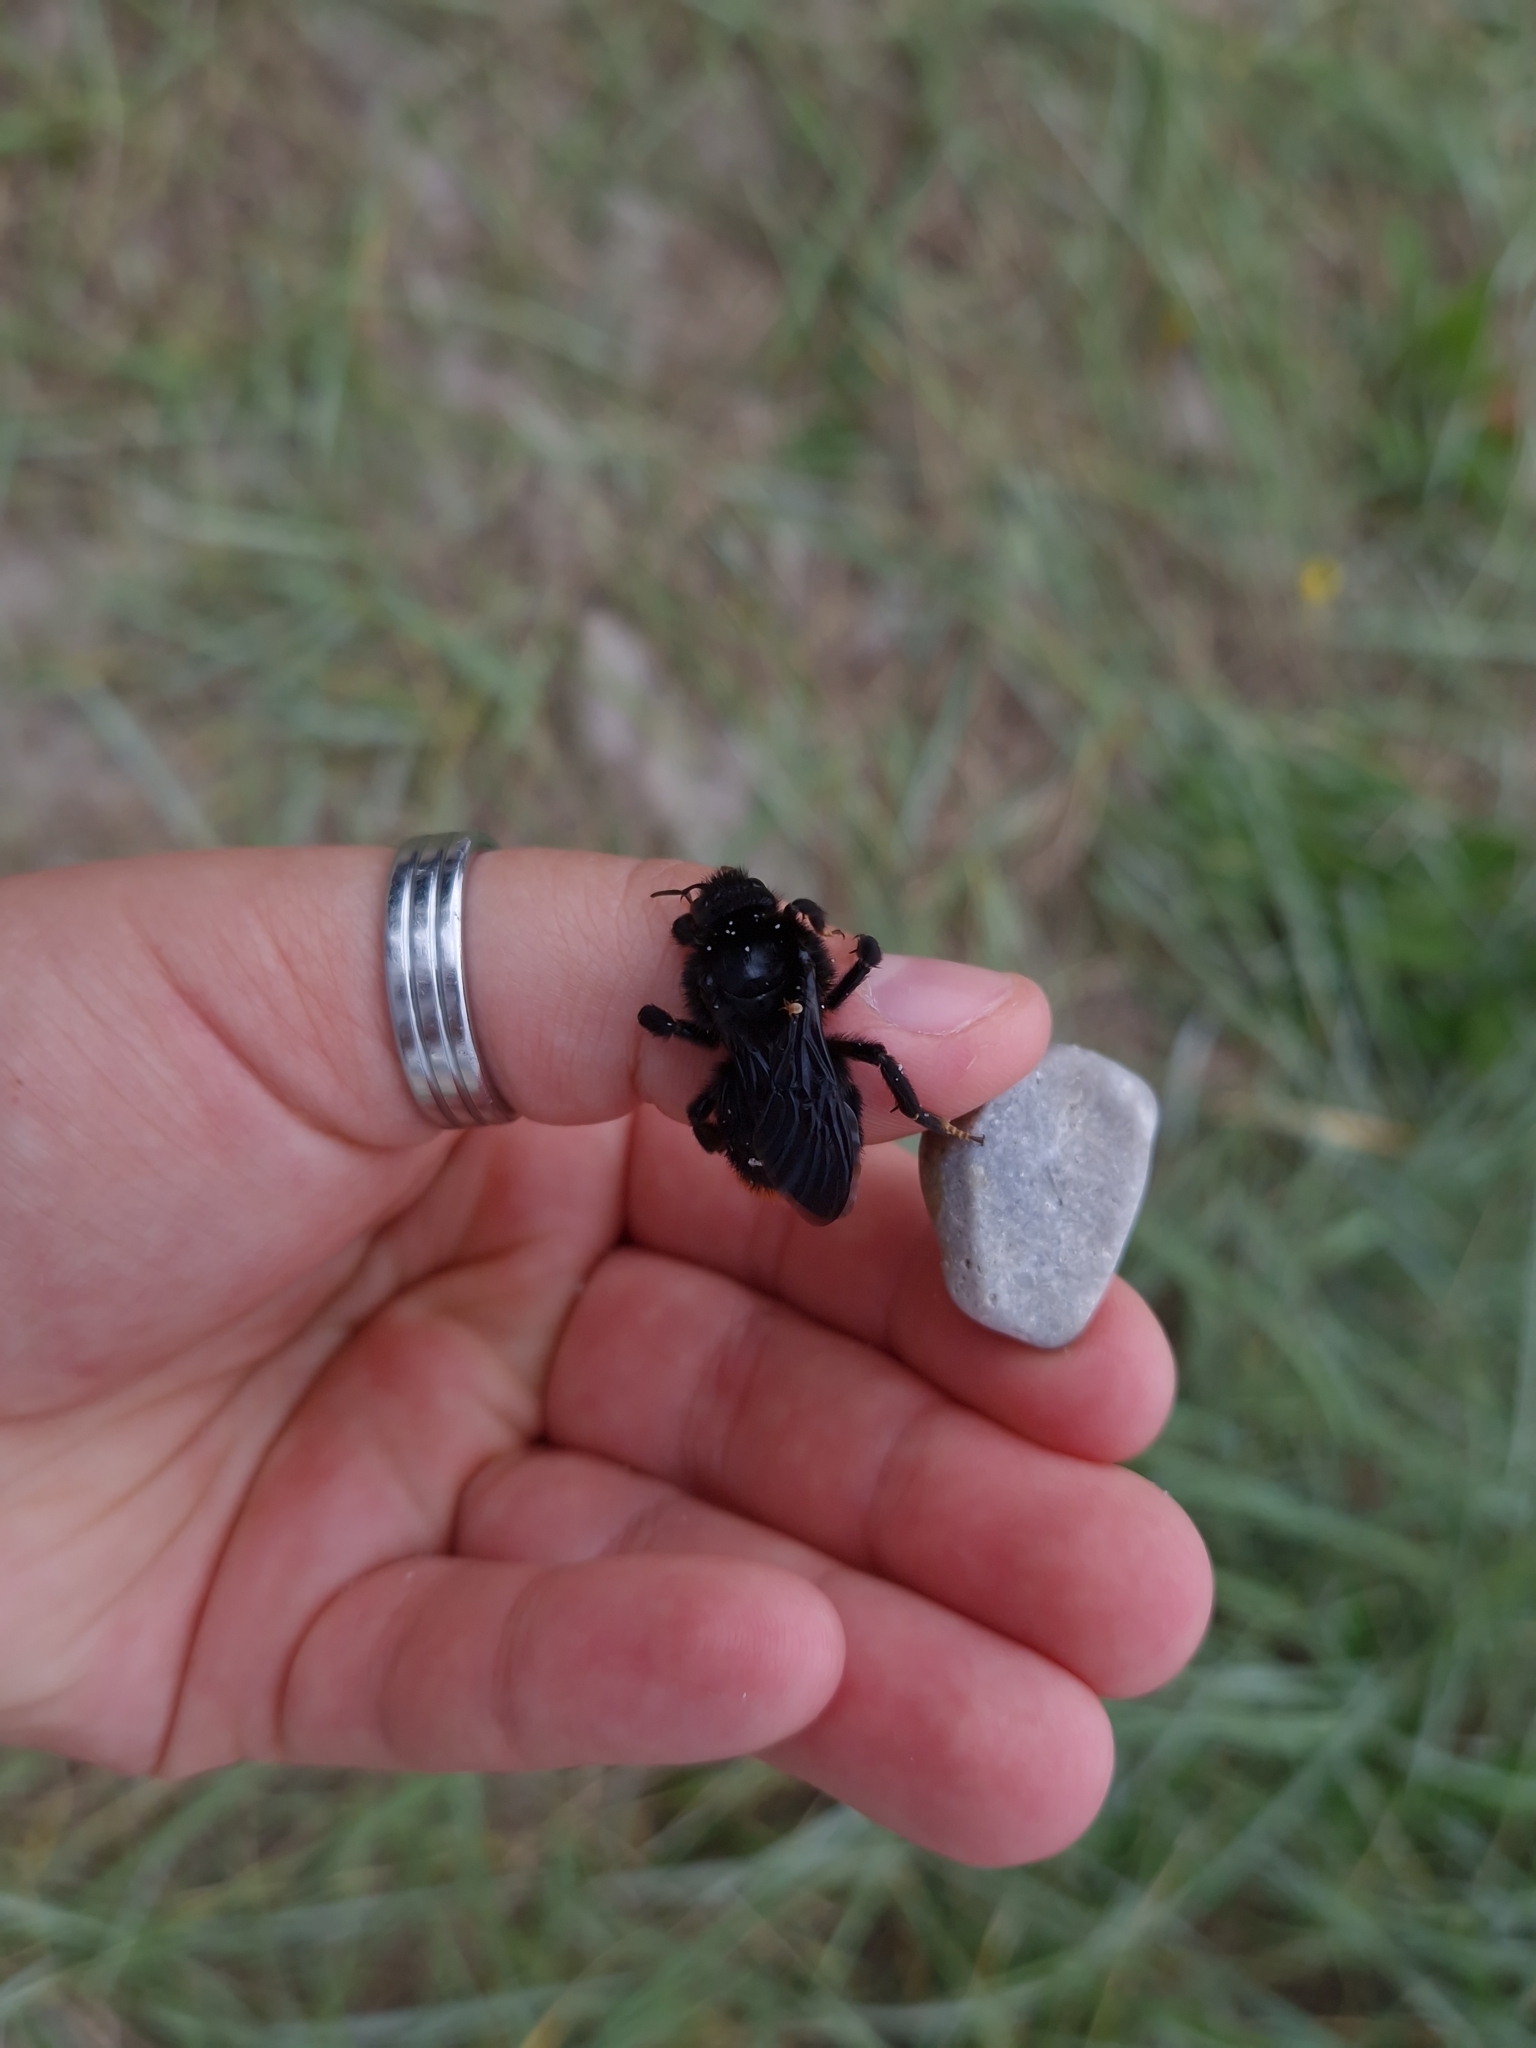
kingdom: Animalia
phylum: Arthropoda
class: Insecta
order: Hymenoptera
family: Apidae
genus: Bombus
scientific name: Bombus rupestris
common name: Hill cuckoo-bee
